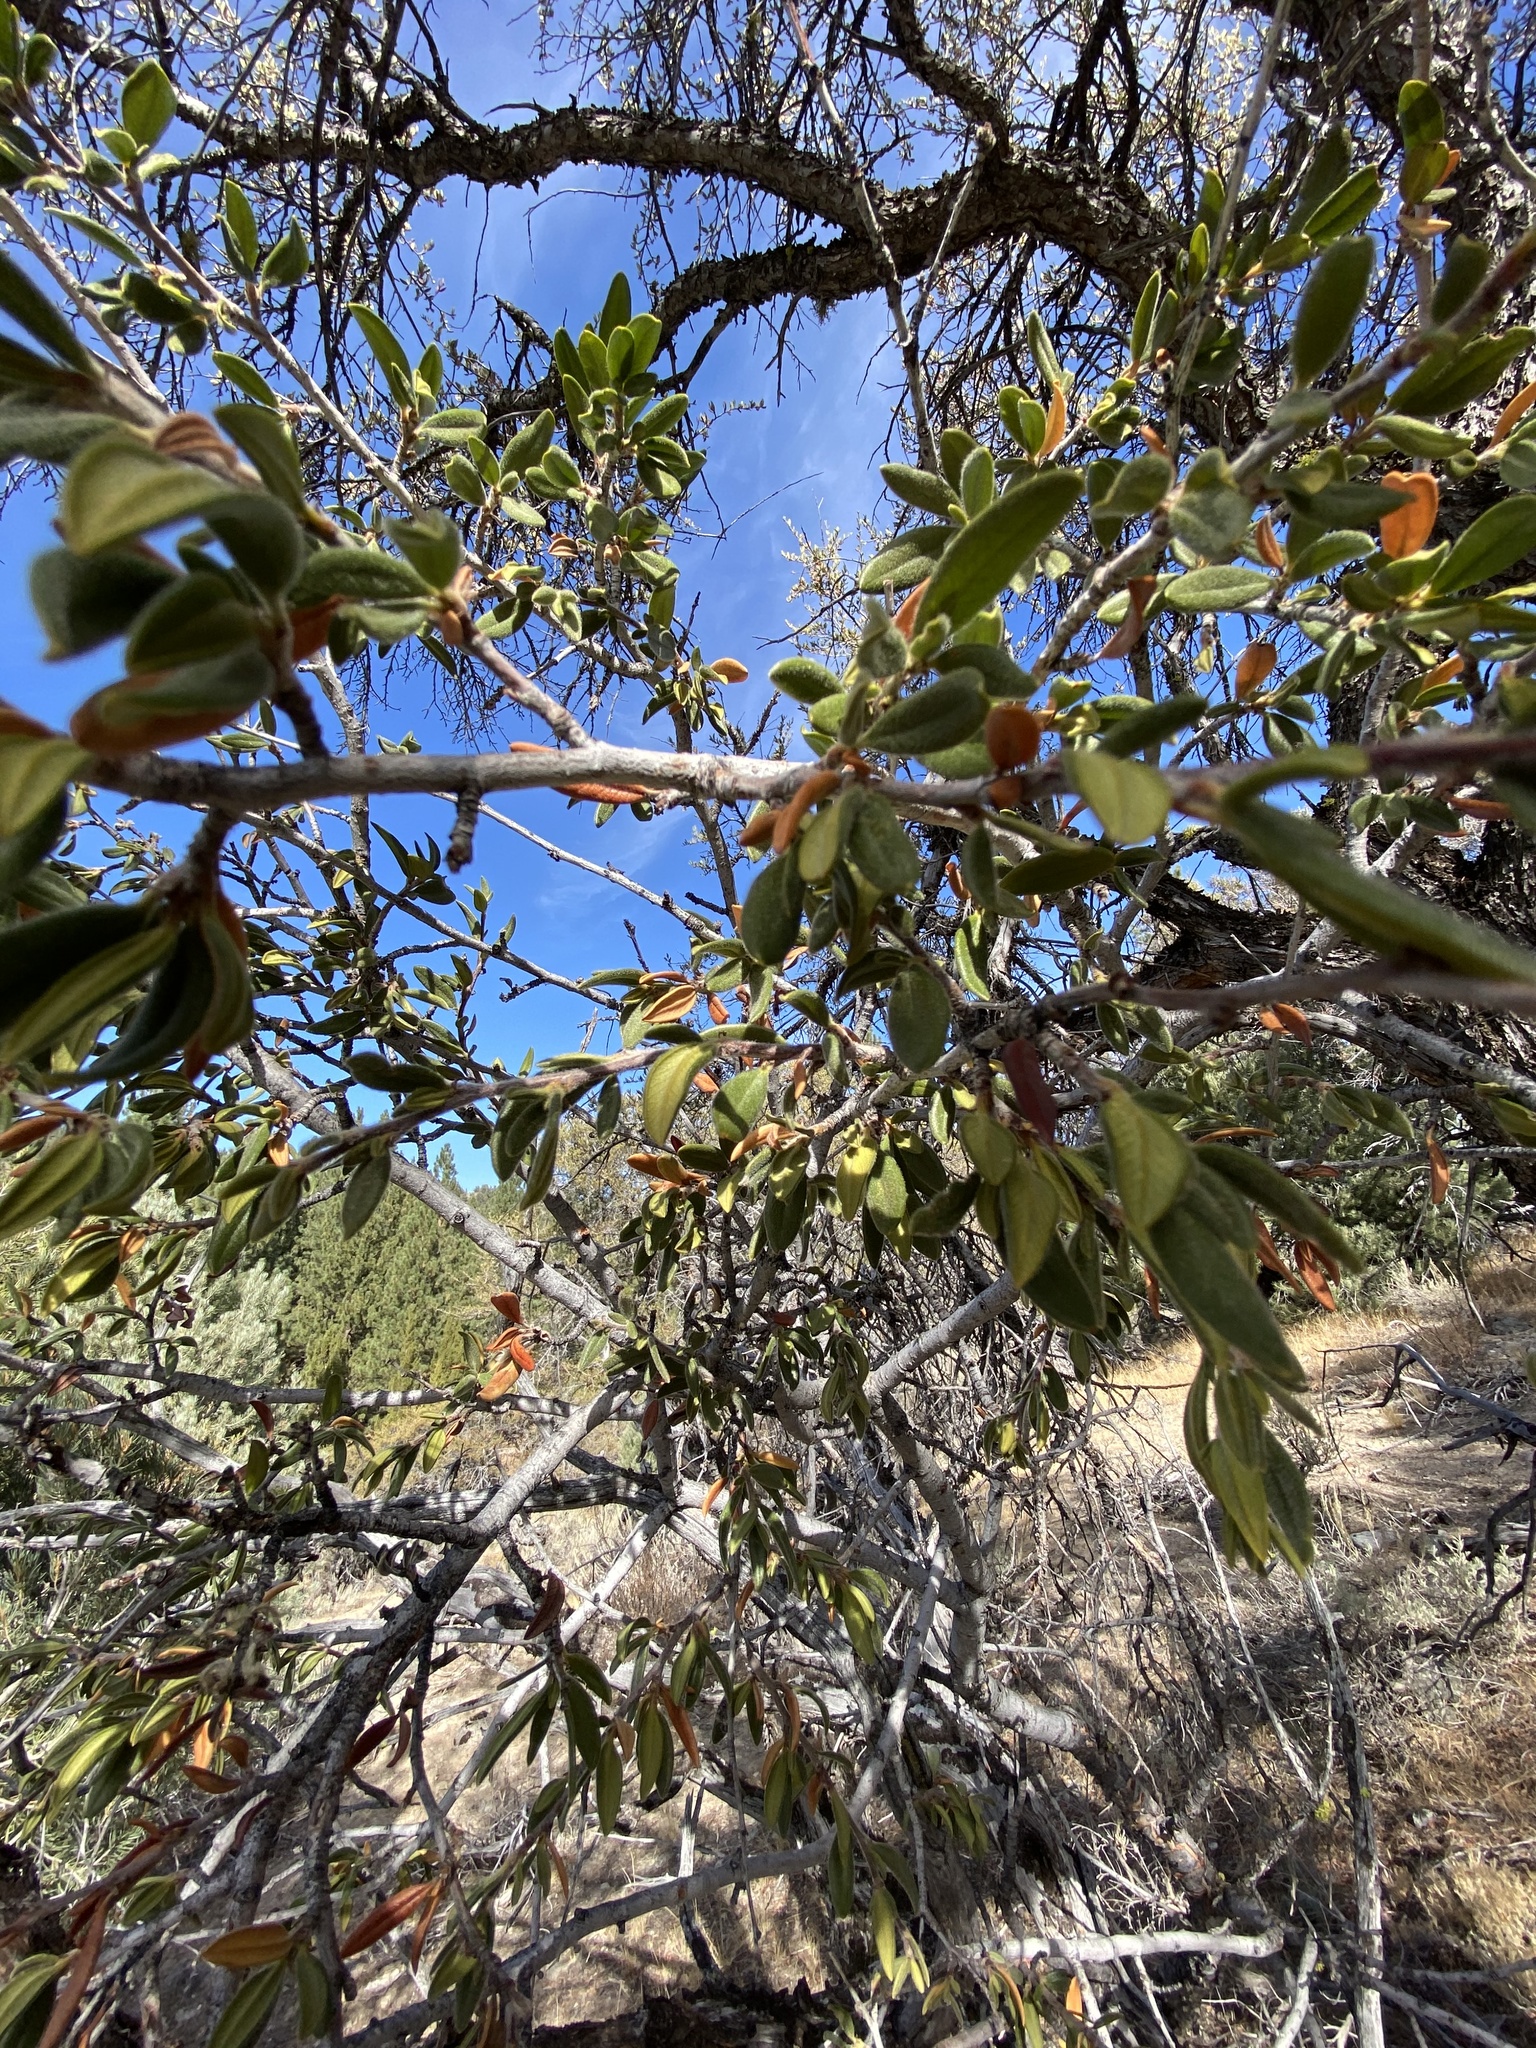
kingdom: Plantae
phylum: Tracheophyta
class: Magnoliopsida
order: Rosales
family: Rosaceae
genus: Cercocarpus
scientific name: Cercocarpus ledifolius
